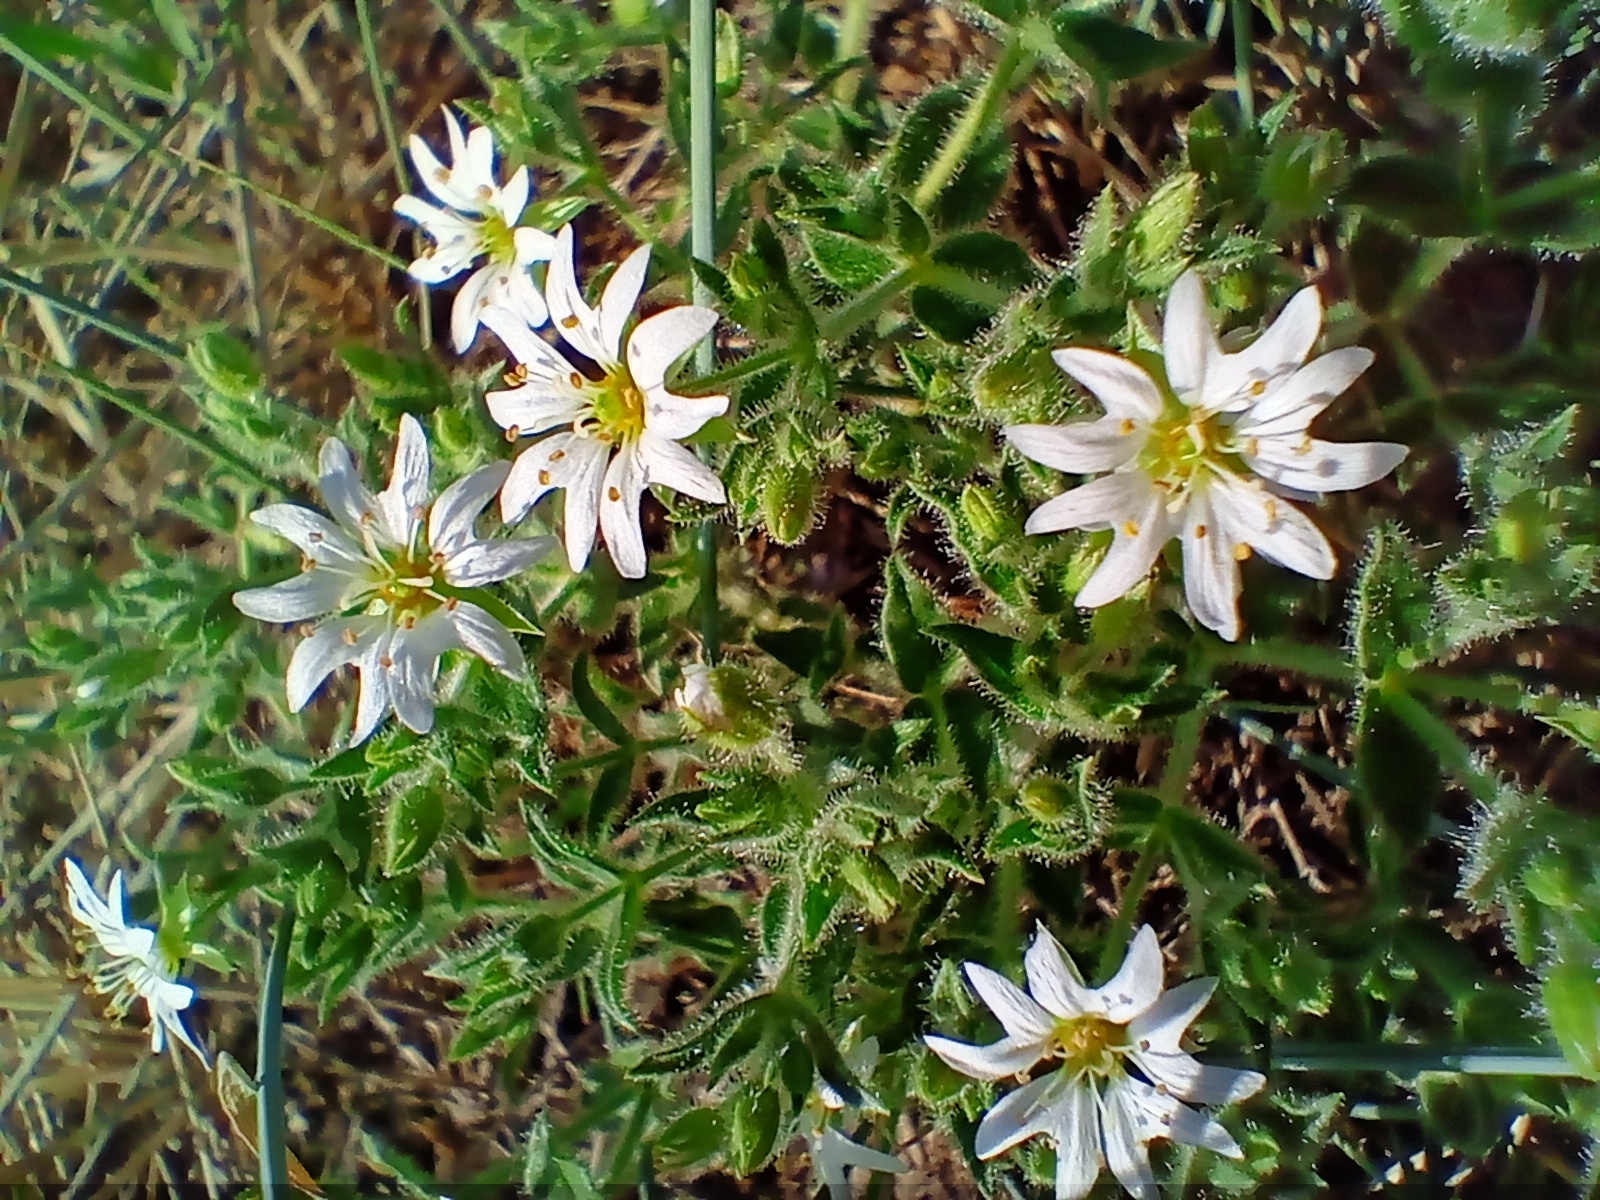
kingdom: Plantae
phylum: Tracheophyta
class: Magnoliopsida
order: Caryophyllales
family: Caryophyllaceae
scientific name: Caryophyllaceae
